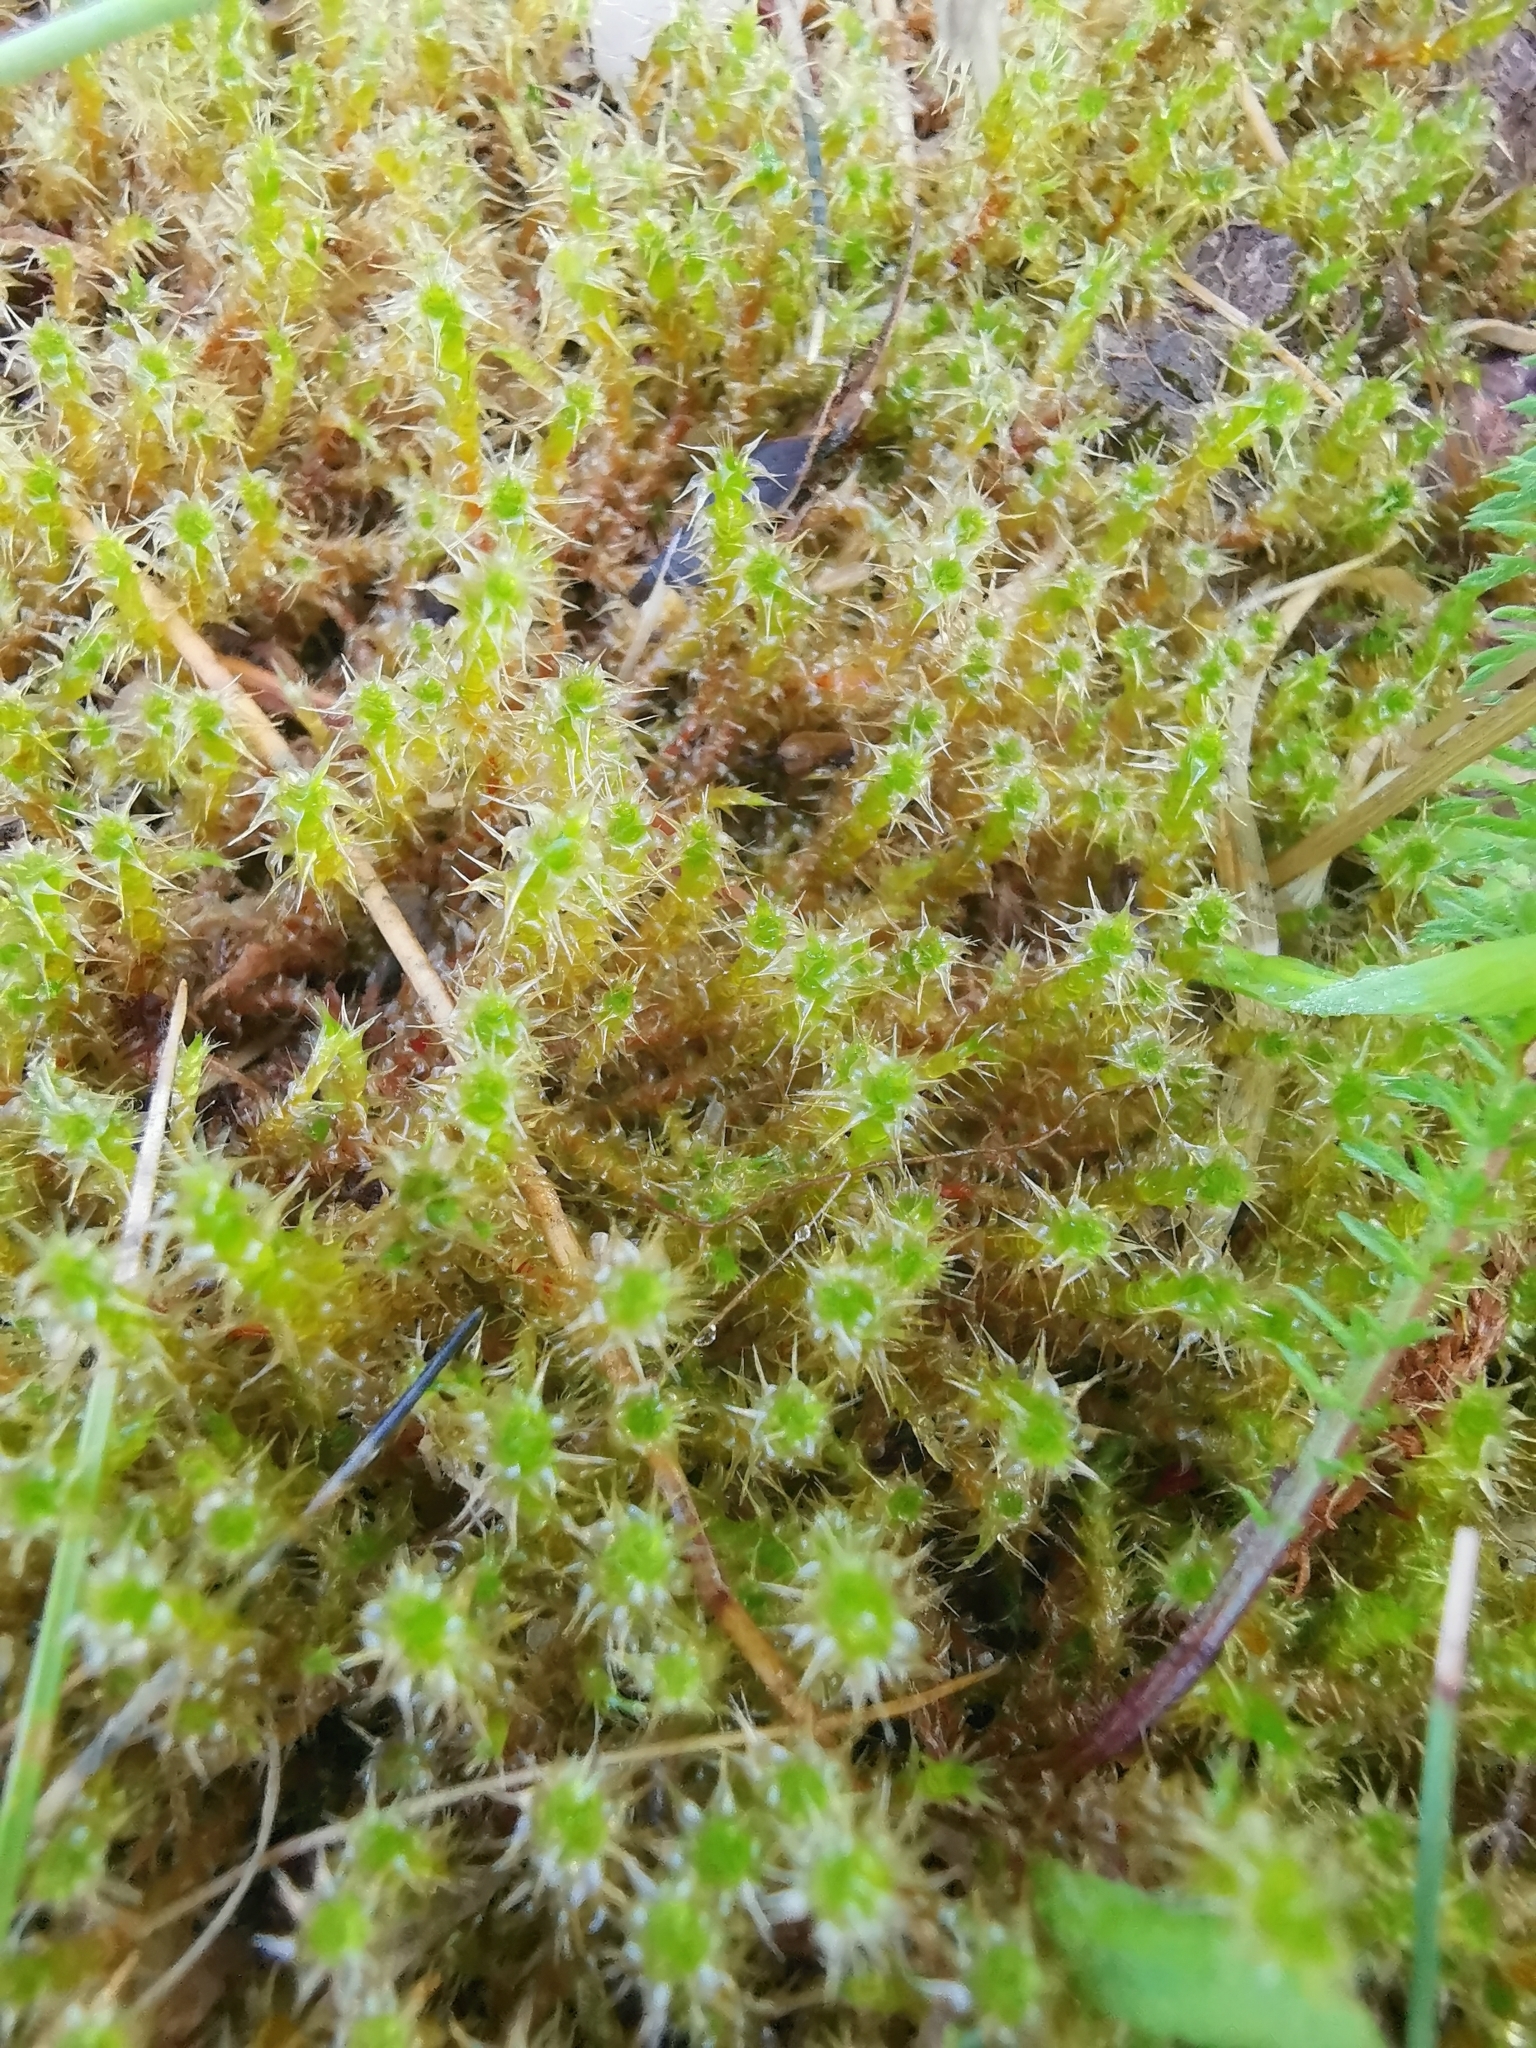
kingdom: Plantae
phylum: Bryophyta
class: Bryopsida
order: Hypnales
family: Hylocomiaceae
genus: Rhytidiadelphus
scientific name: Rhytidiadelphus squarrosus
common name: Springy turf-moss
